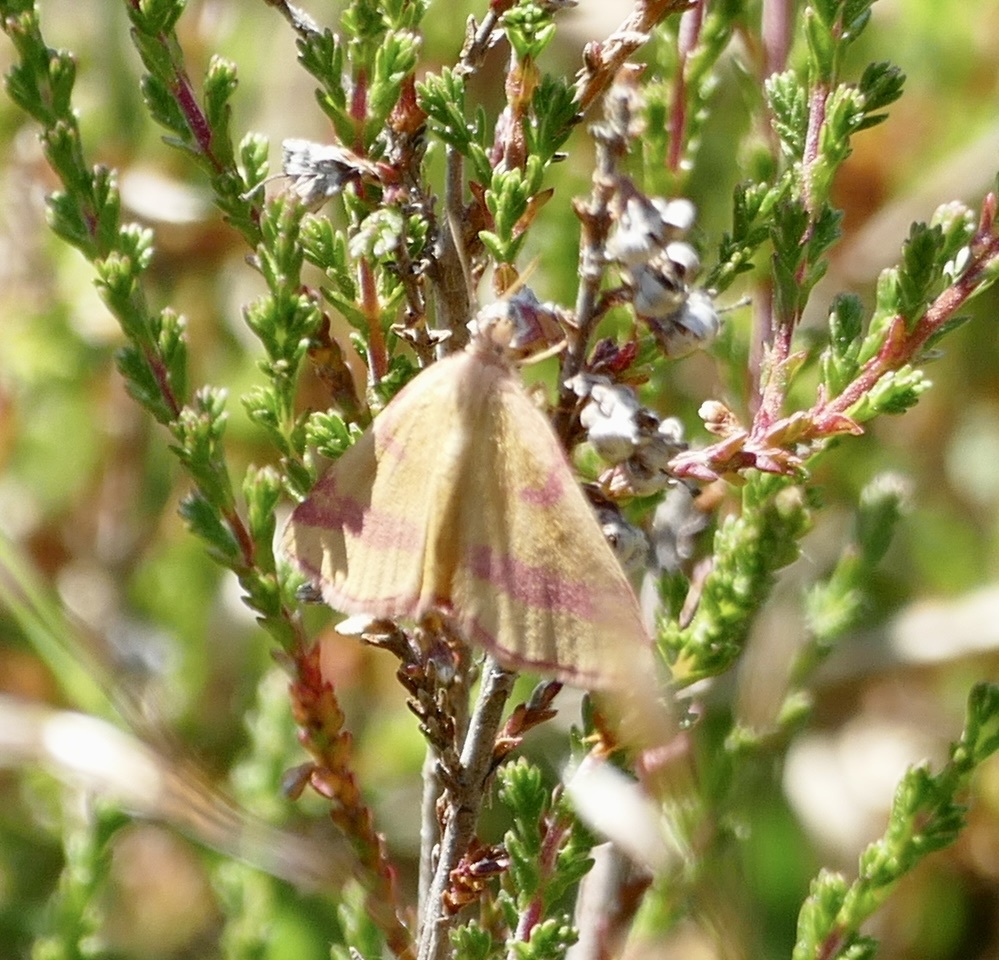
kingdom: Animalia
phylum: Arthropoda
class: Insecta
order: Lepidoptera
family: Geometridae
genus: Lythria
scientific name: Lythria cruentaria
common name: Purple-barred yellow
